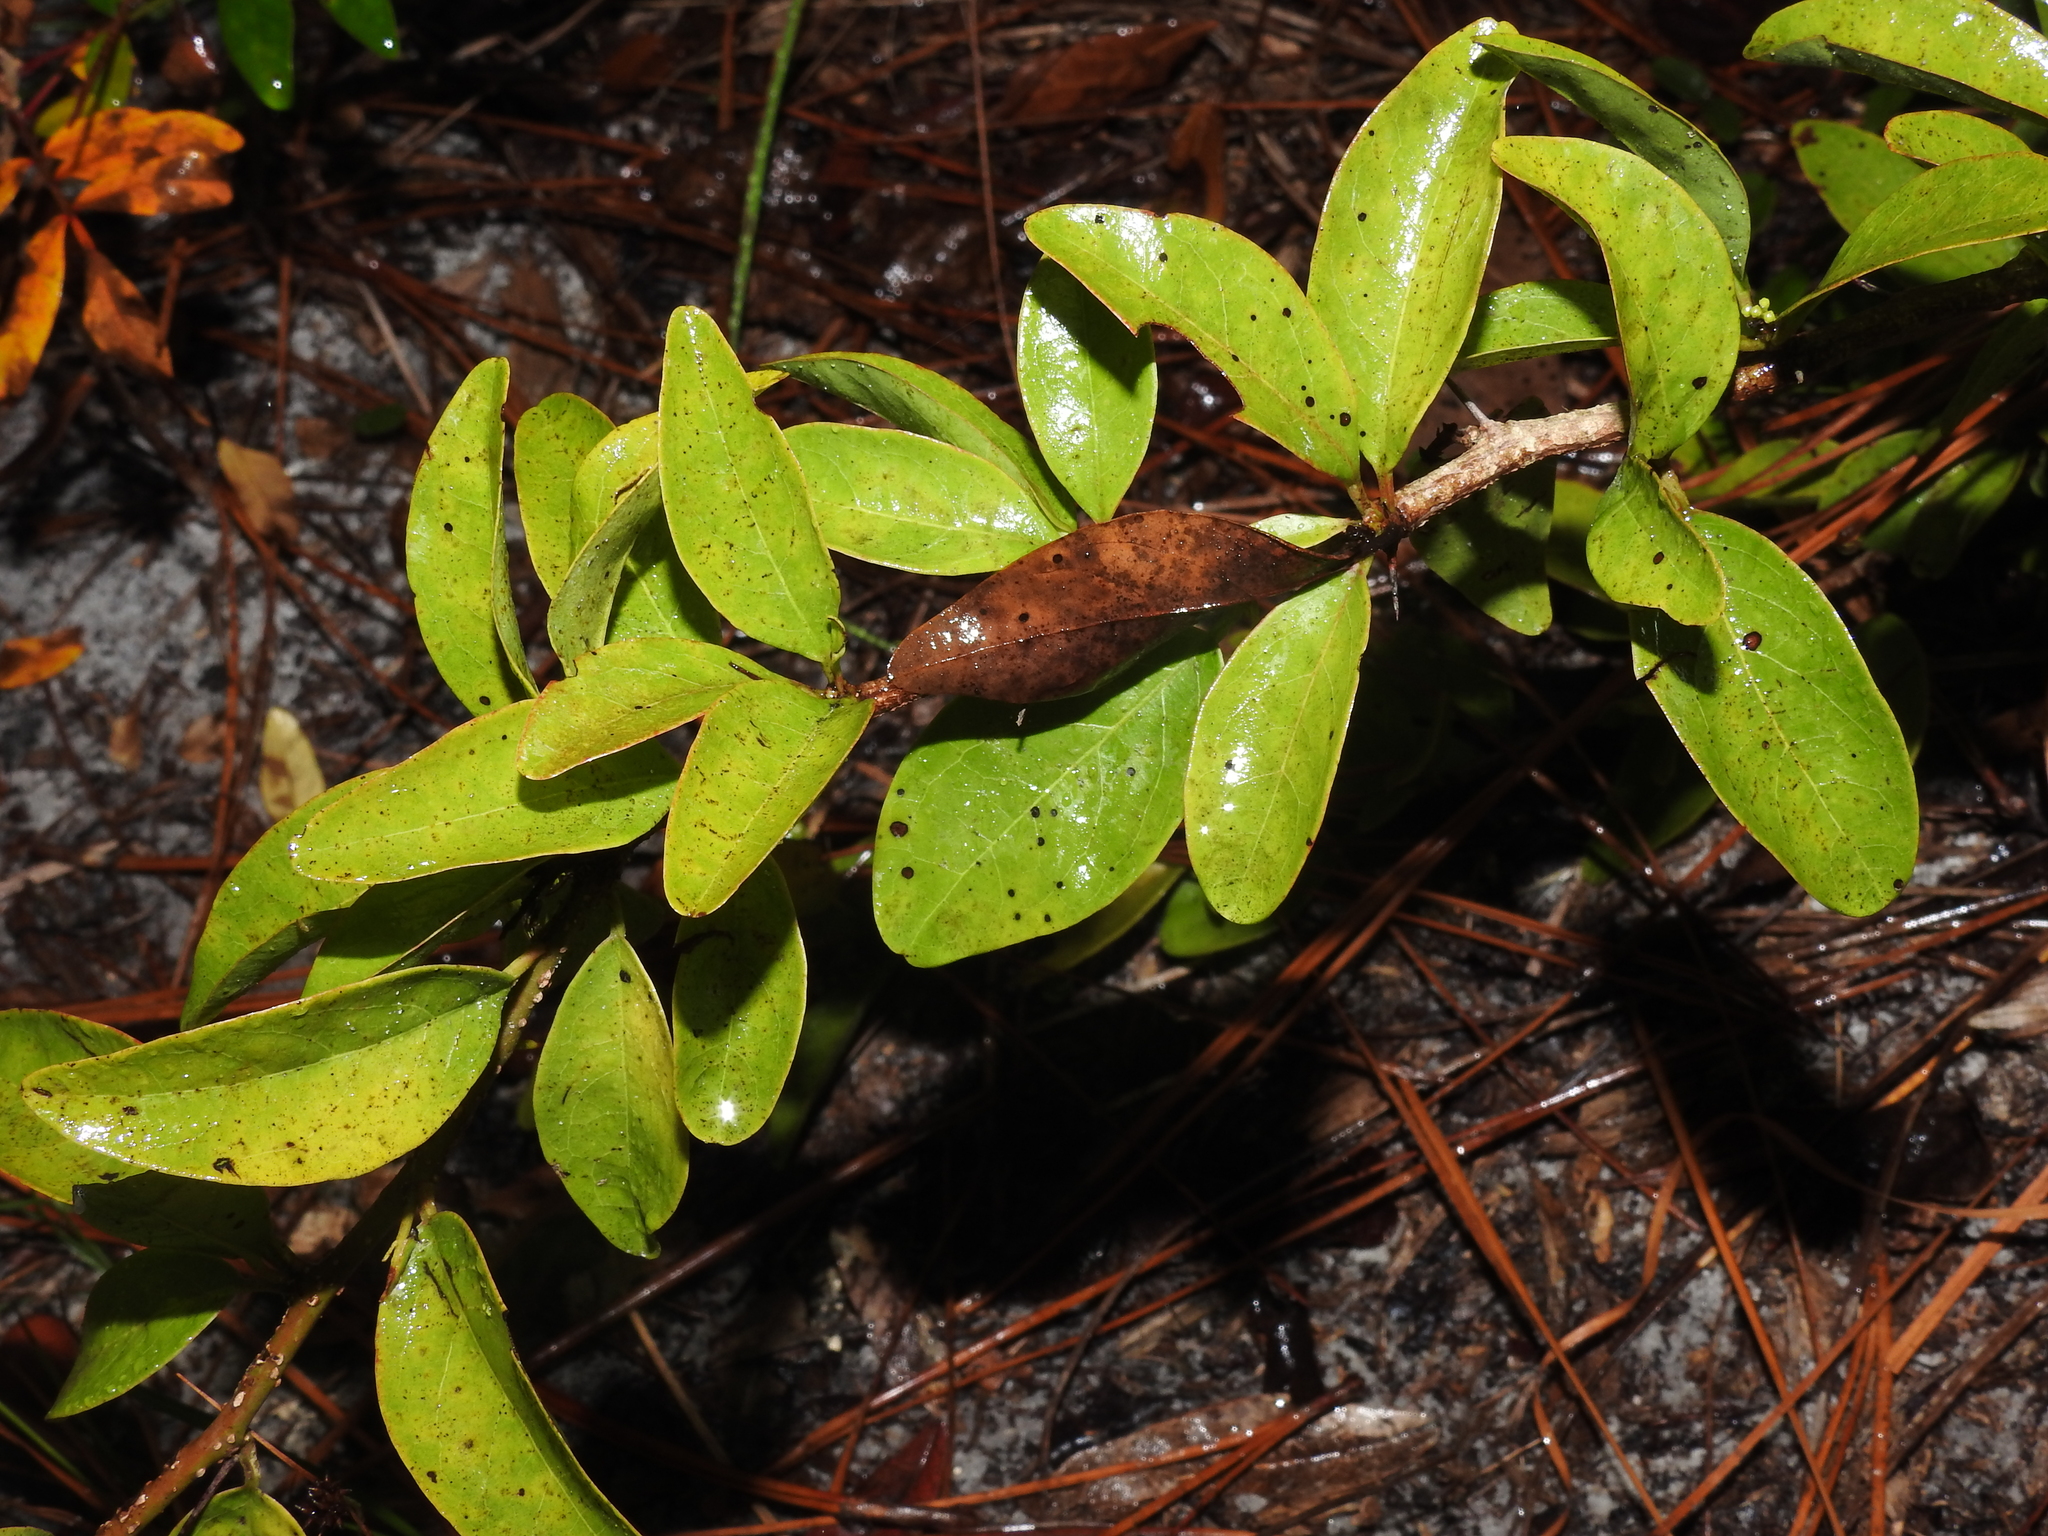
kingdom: Plantae
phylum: Tracheophyta
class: Magnoliopsida
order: Santalales
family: Ximeniaceae
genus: Ximenia
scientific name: Ximenia americana
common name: Tallowwood
